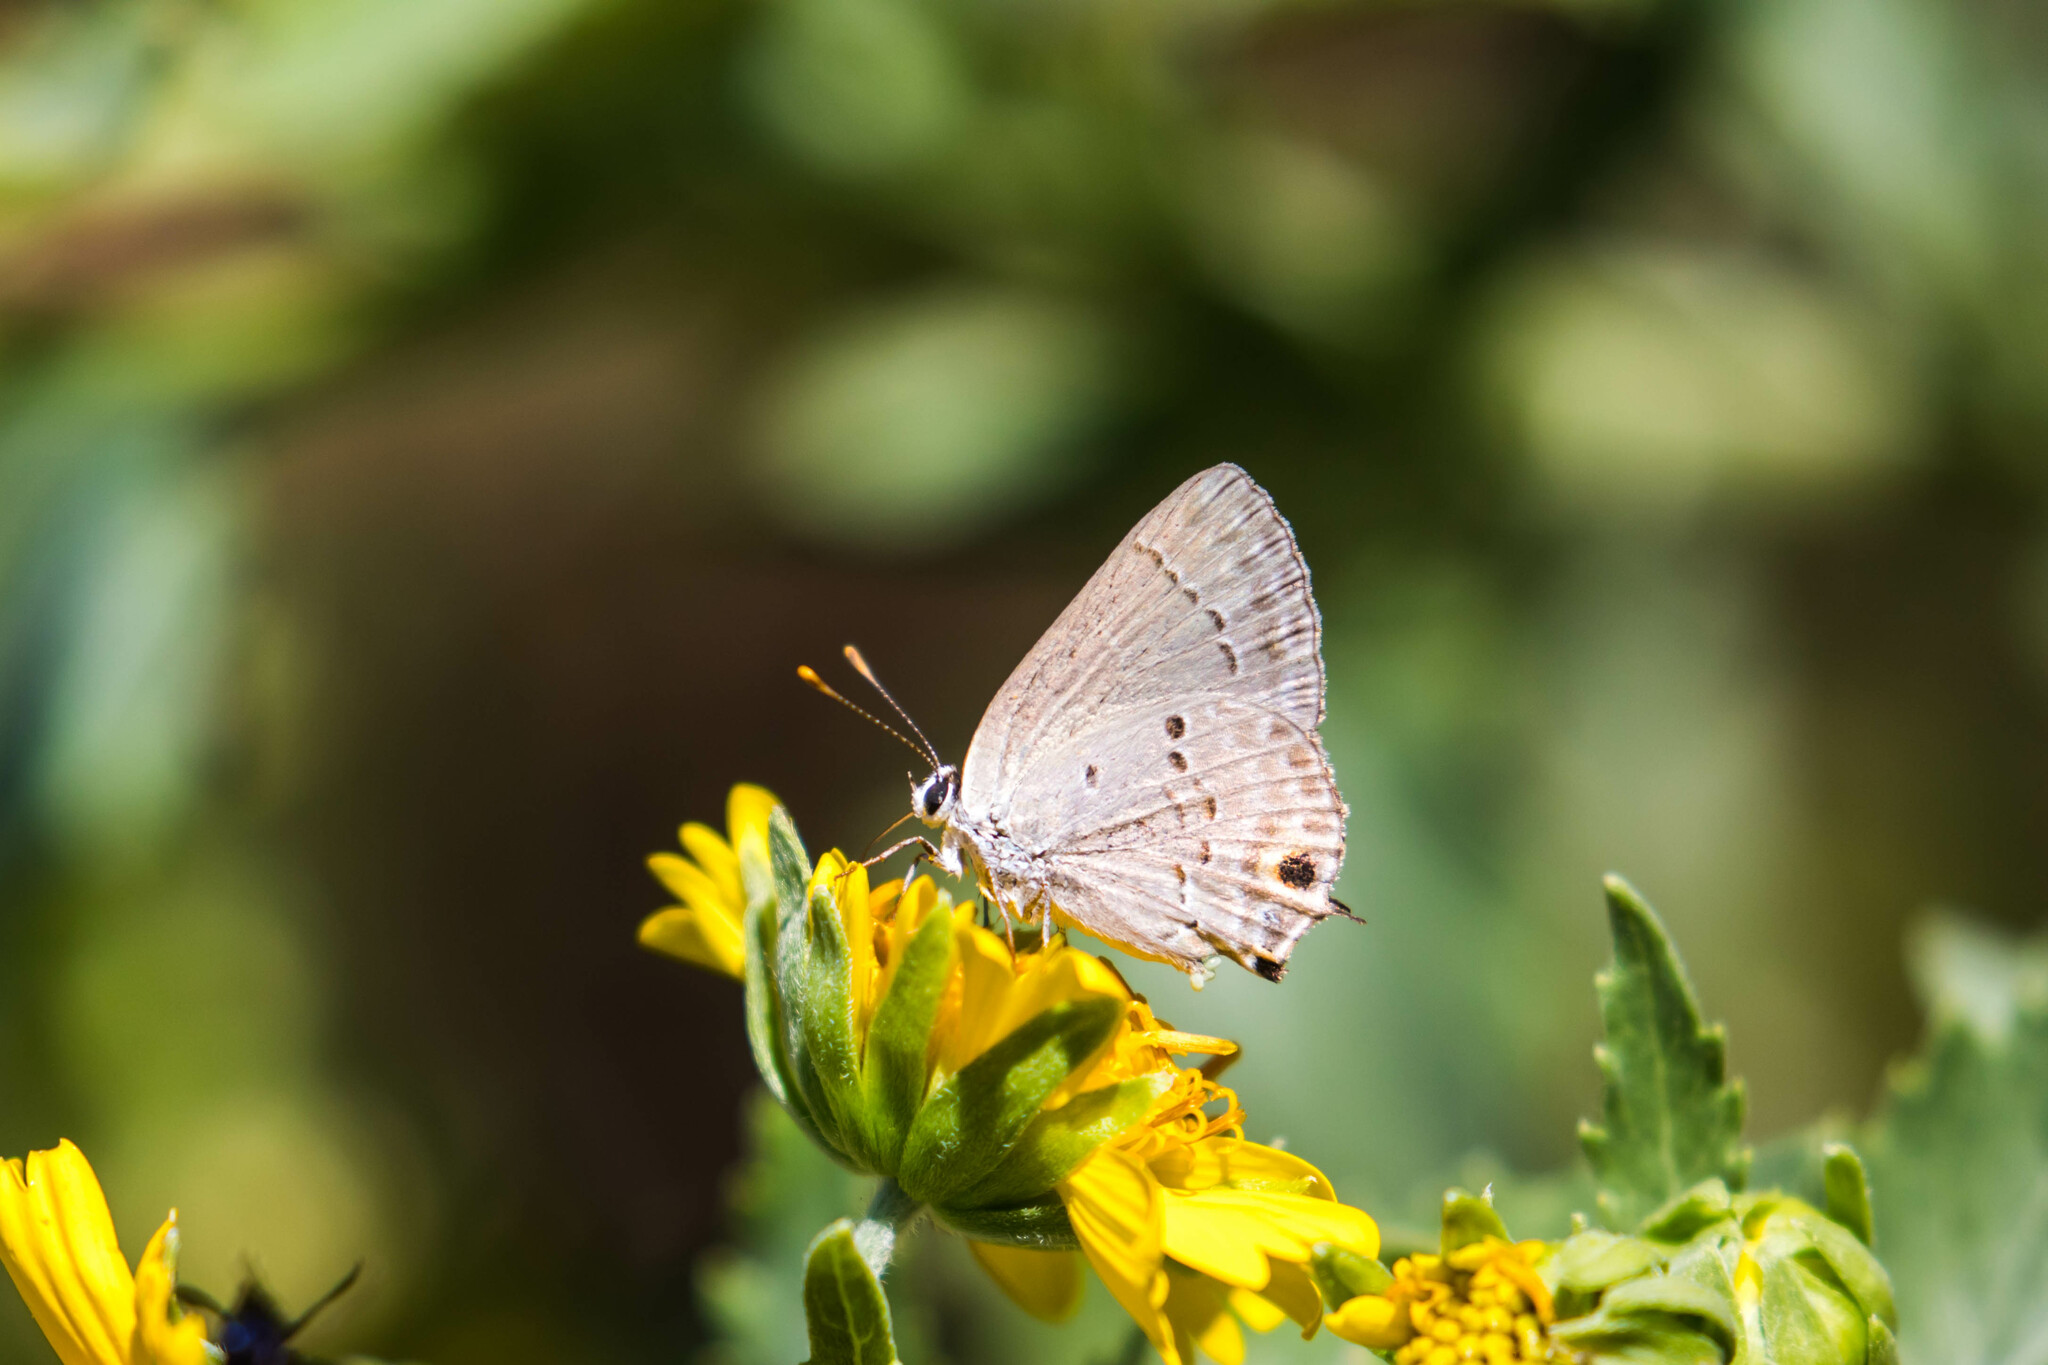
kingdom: Animalia
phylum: Arthropoda
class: Insecta
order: Lepidoptera
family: Lycaenidae
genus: Callicista
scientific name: Callicista columella
